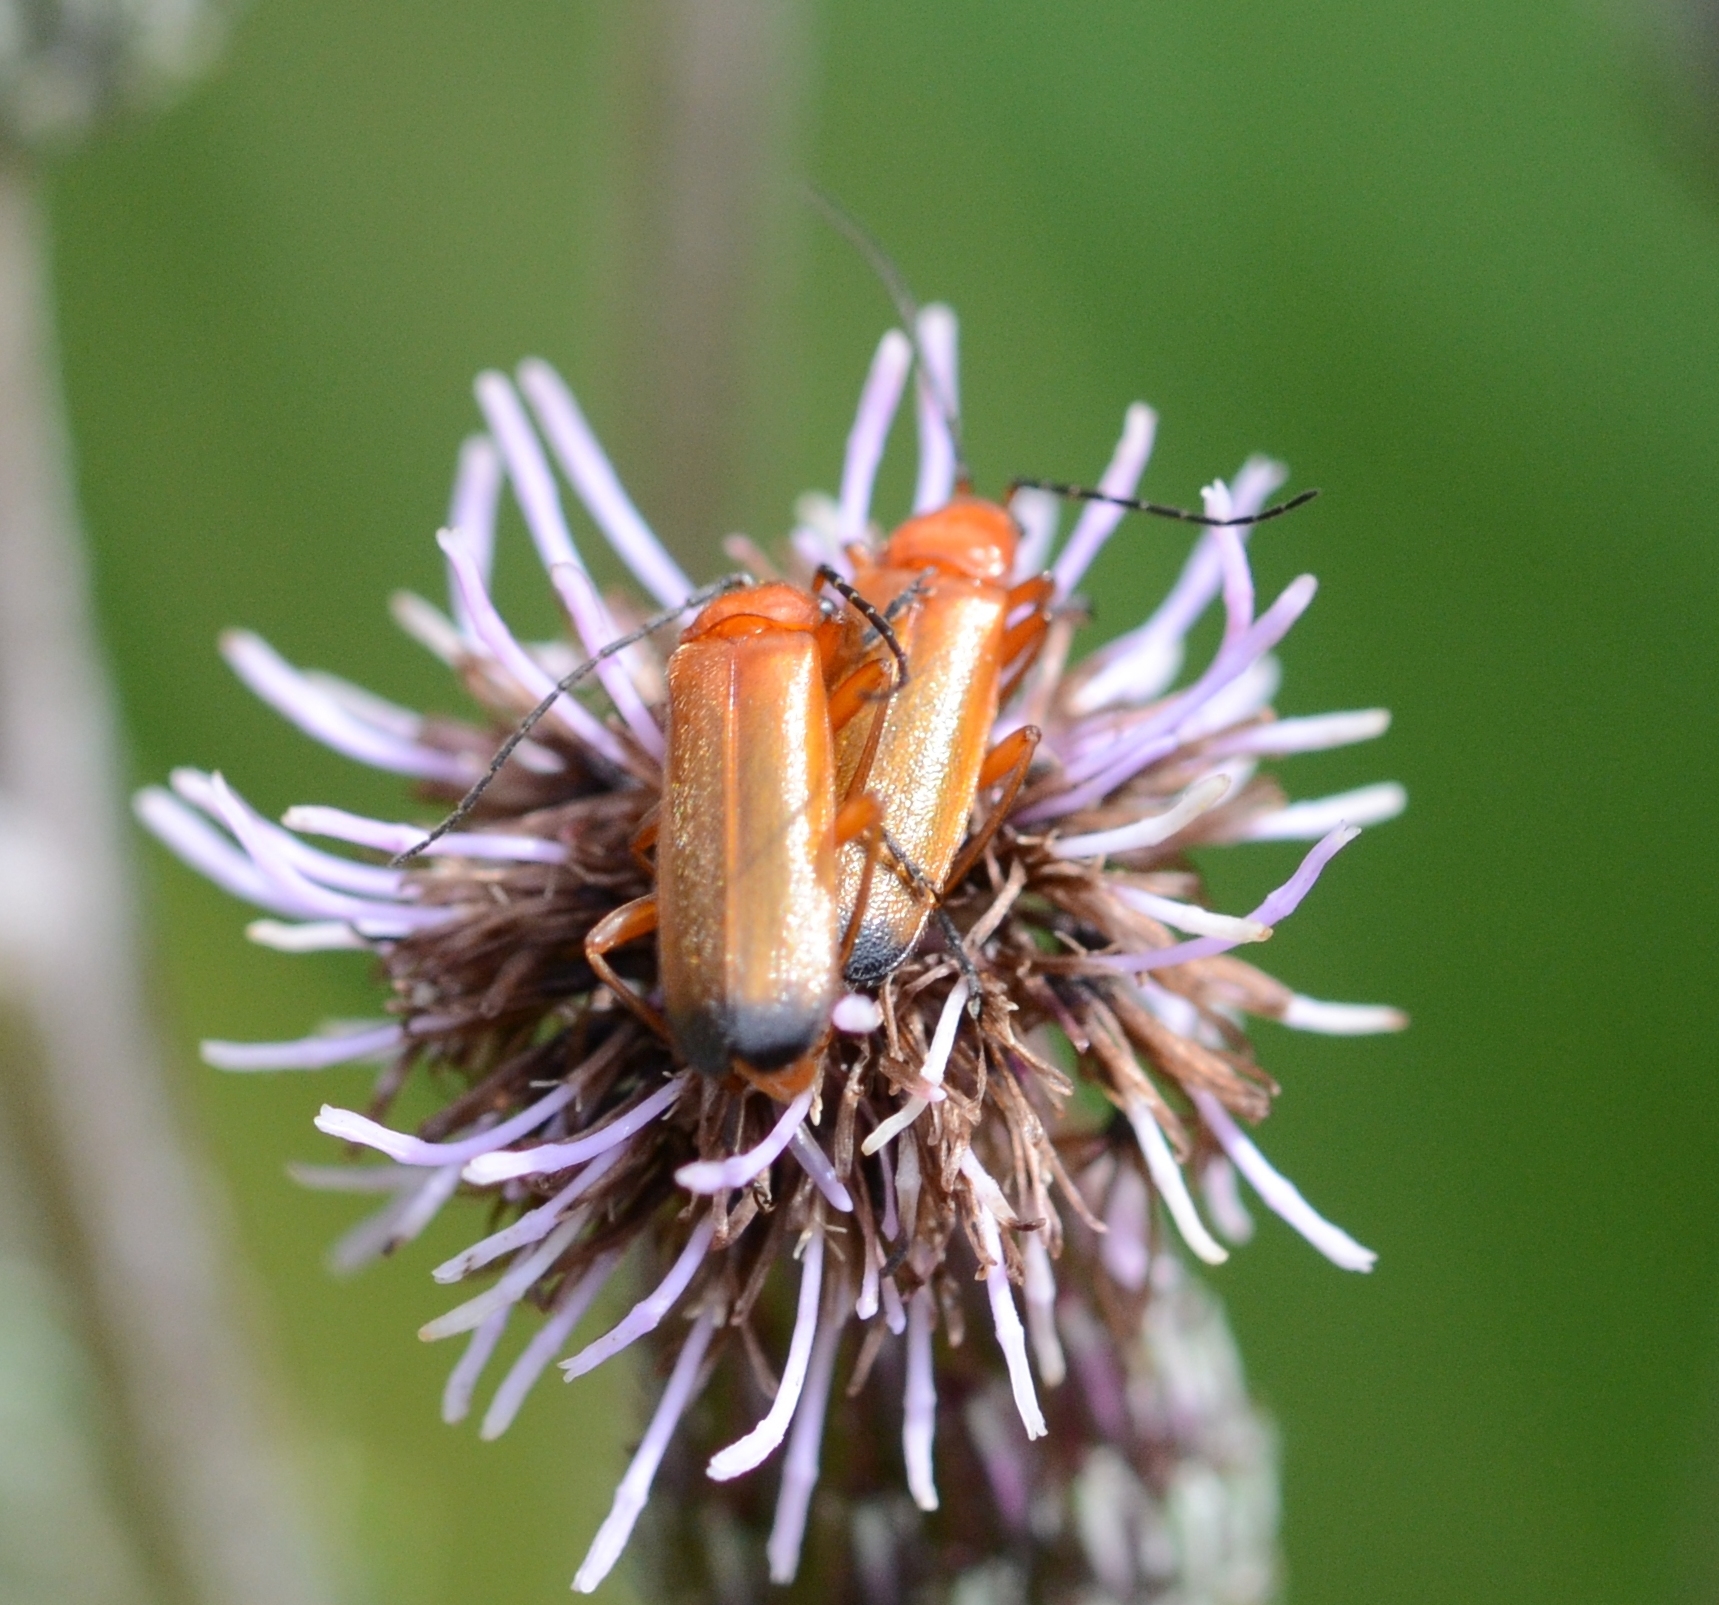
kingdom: Animalia
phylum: Arthropoda
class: Insecta
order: Coleoptera
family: Cantharidae
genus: Rhagonycha
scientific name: Rhagonycha fulva
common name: Common red soldier beetle
